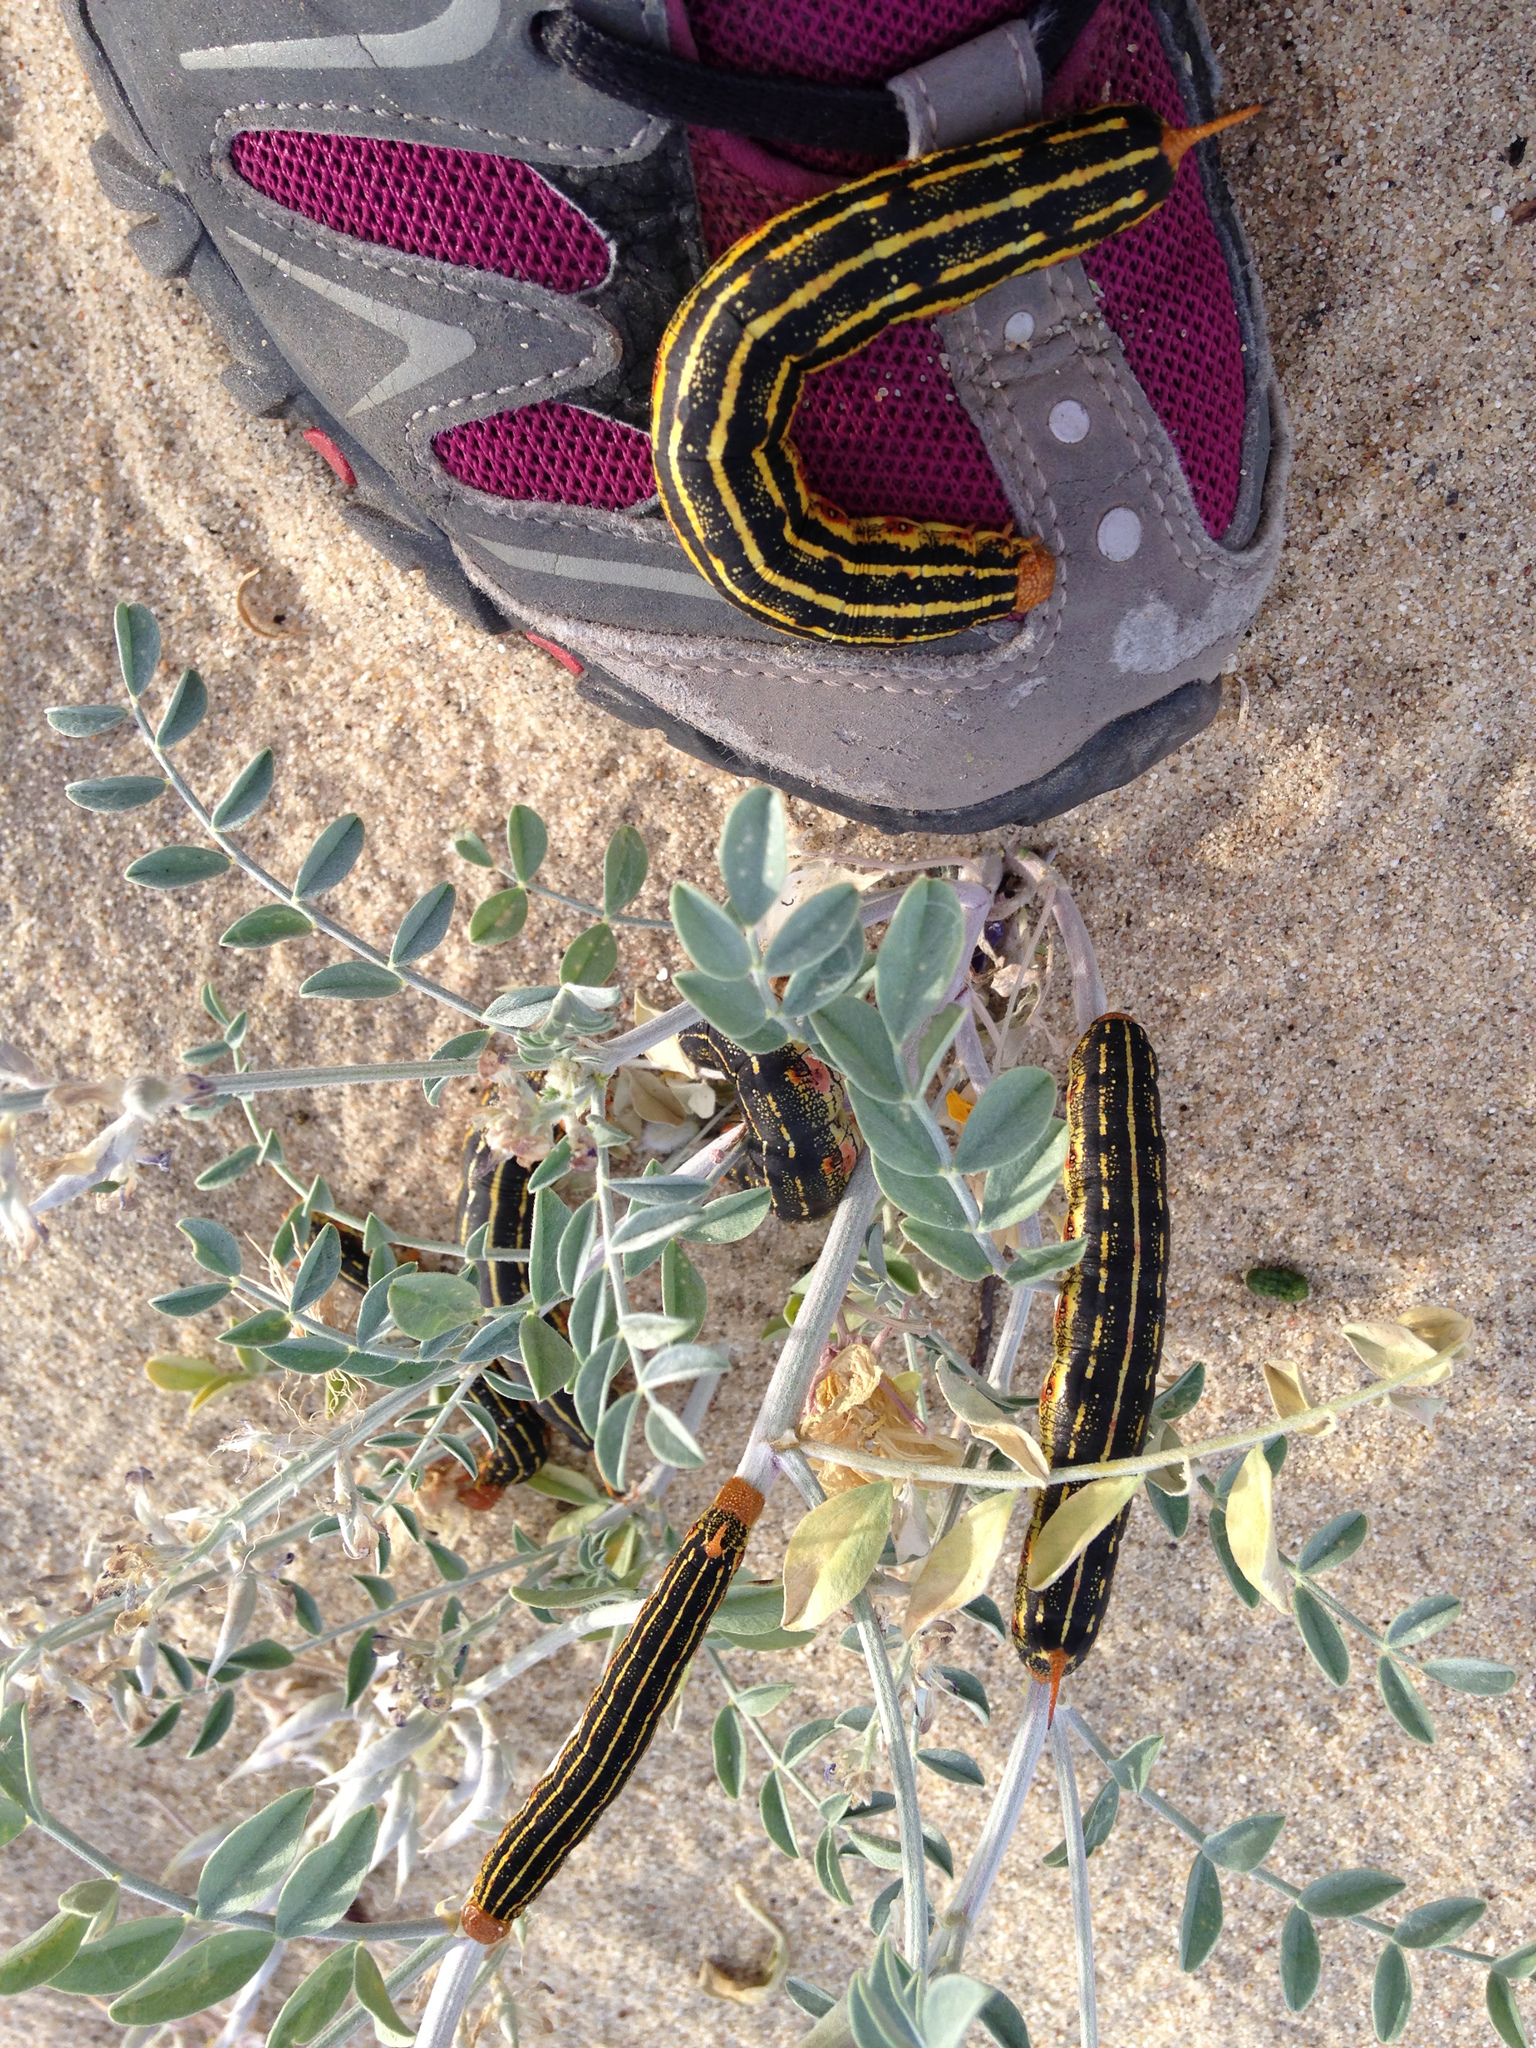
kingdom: Animalia
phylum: Arthropoda
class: Insecta
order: Lepidoptera
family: Sphingidae
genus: Hyles
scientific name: Hyles lineata
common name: White-lined sphinx
